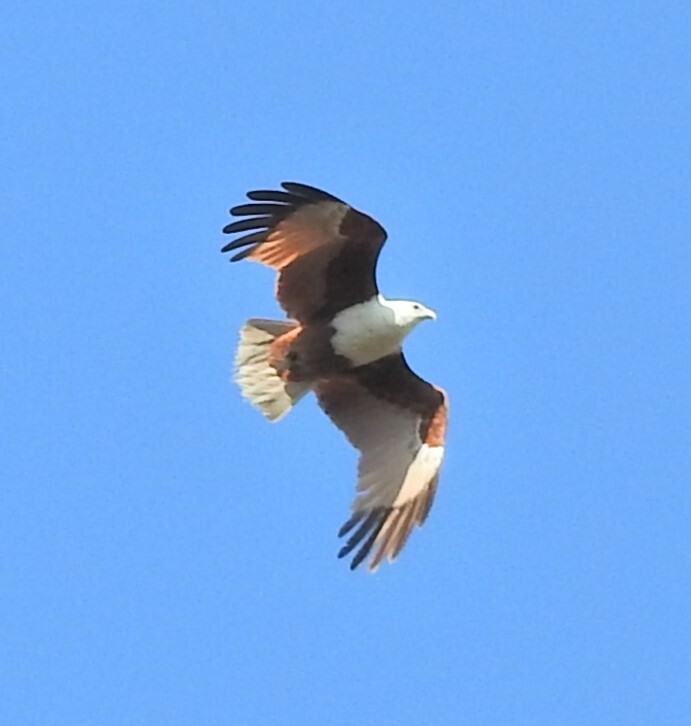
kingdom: Animalia
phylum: Chordata
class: Aves
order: Accipitriformes
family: Accipitridae
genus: Haliastur
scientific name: Haliastur indus
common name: Brahminy kite
